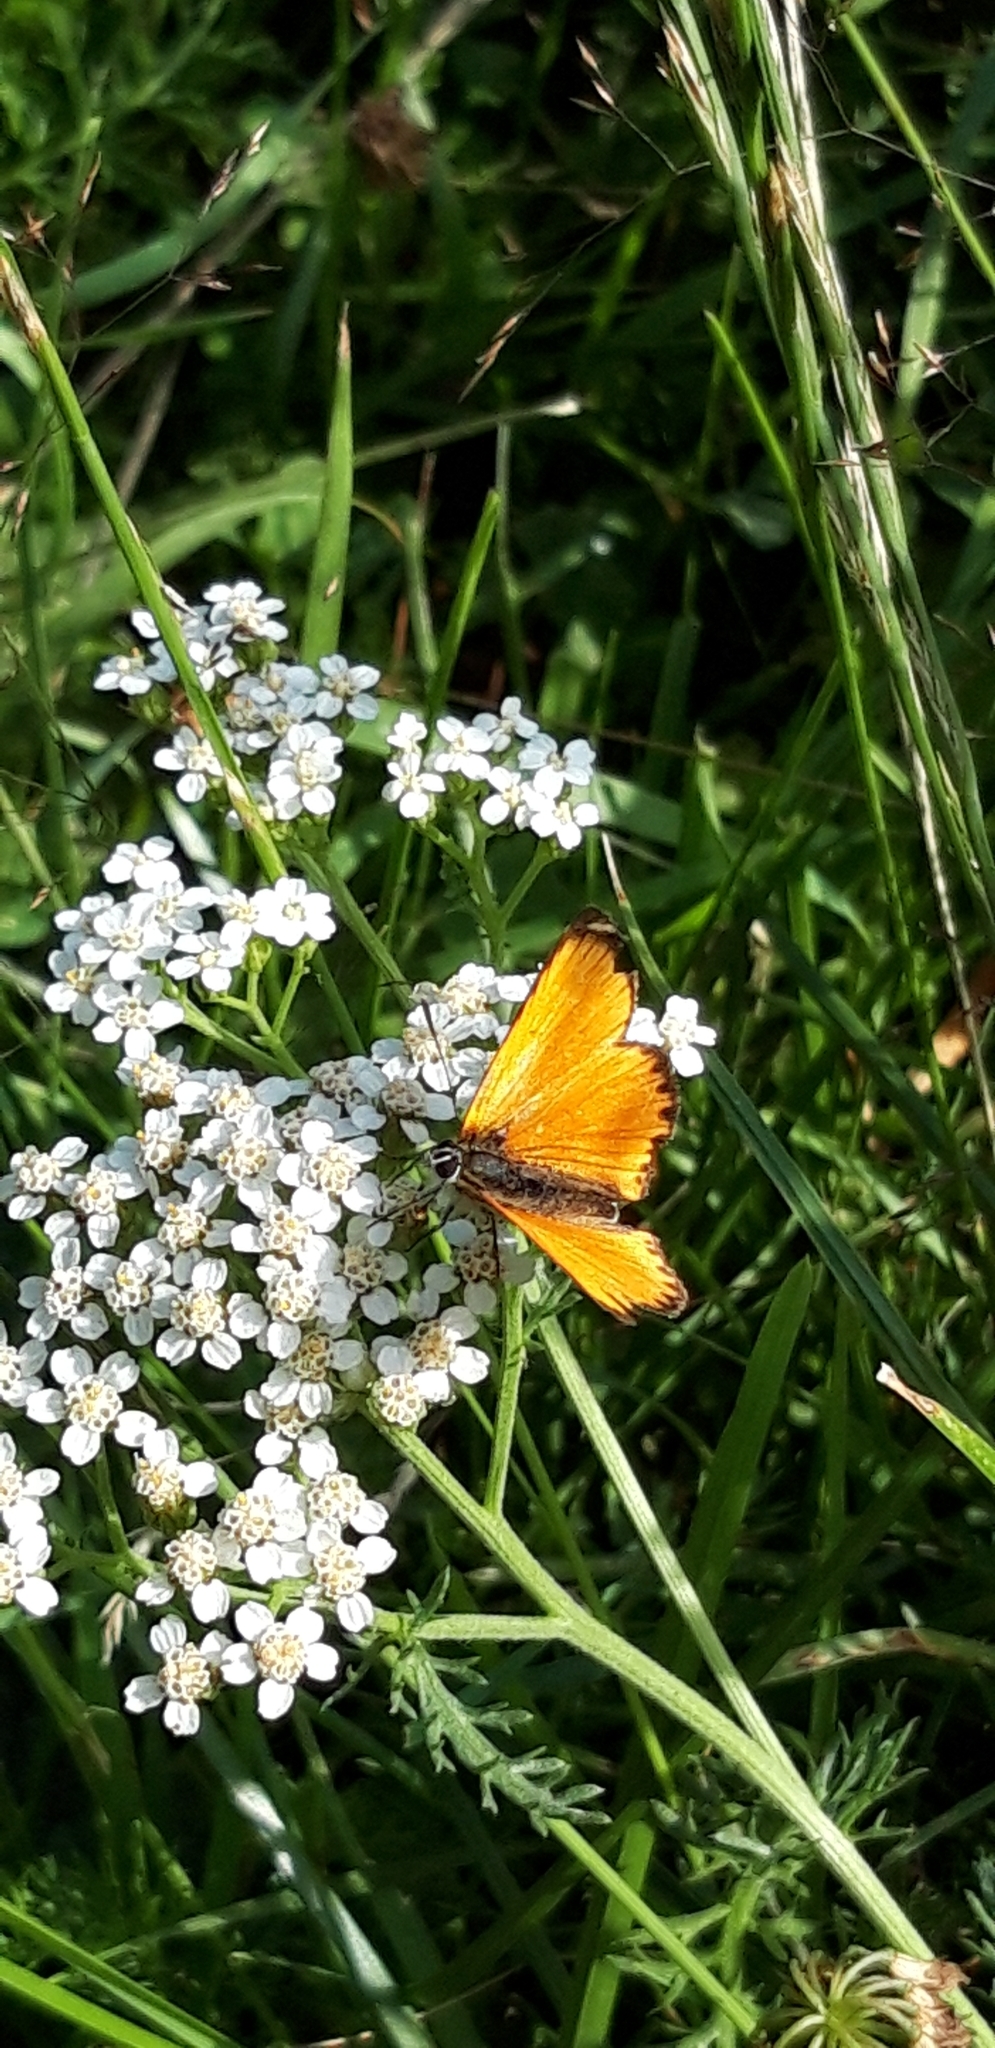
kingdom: Animalia
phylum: Arthropoda
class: Insecta
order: Lepidoptera
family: Lycaenidae
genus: Lycaena
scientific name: Lycaena virgaureae
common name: Scarce copper
